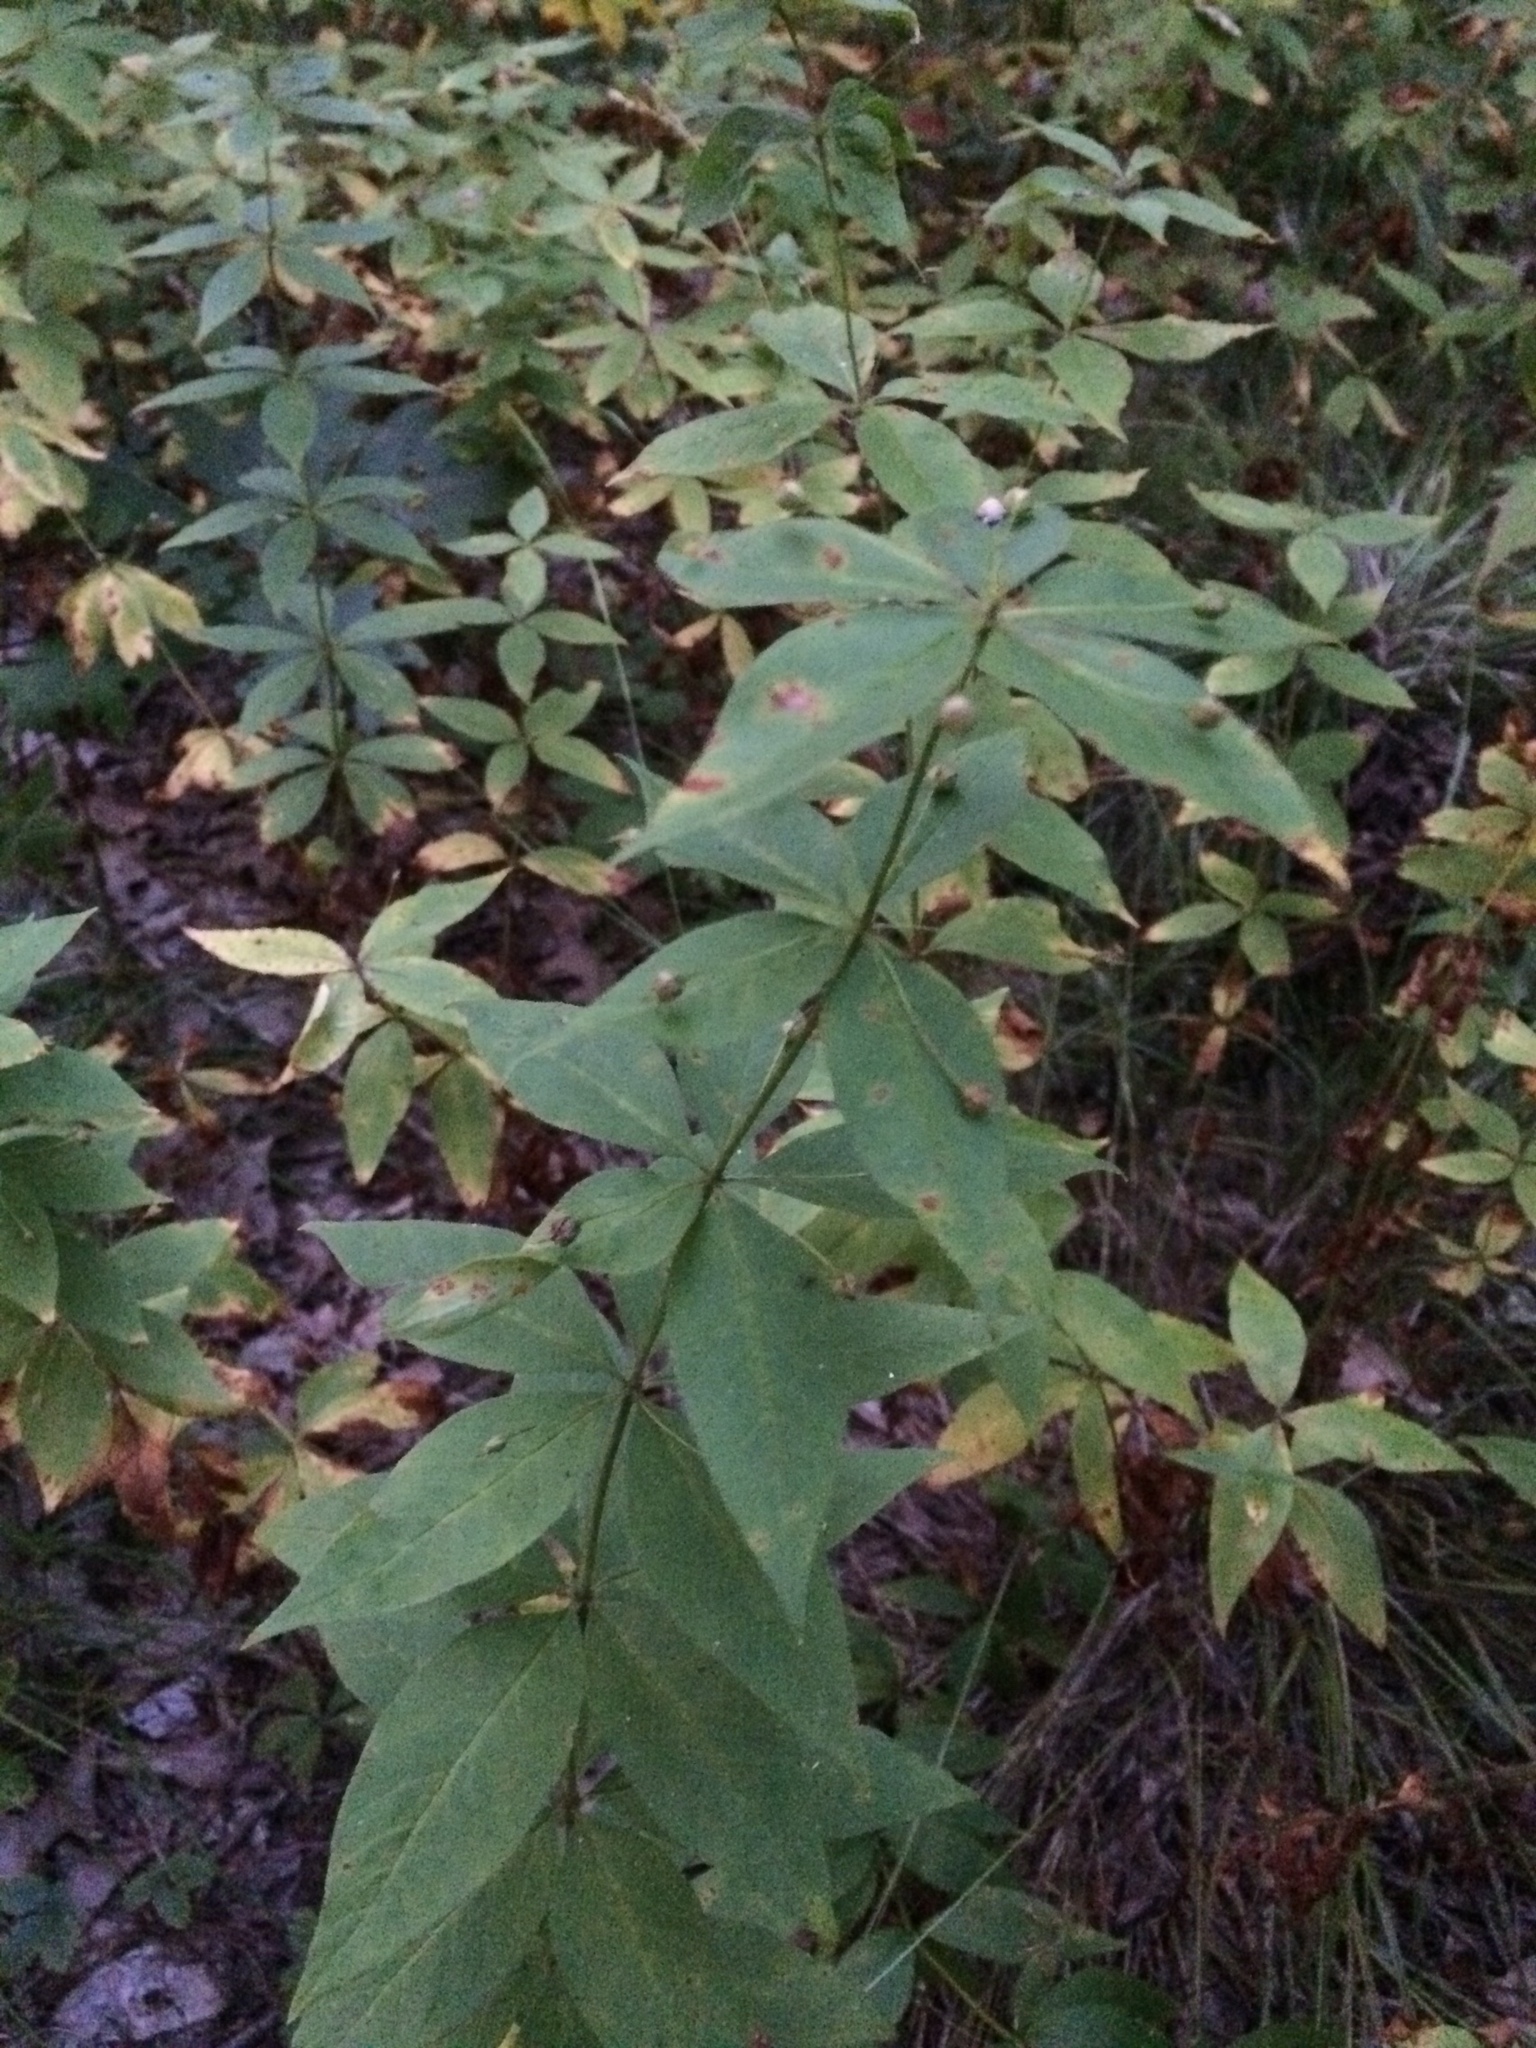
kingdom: Plantae
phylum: Tracheophyta
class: Magnoliopsida
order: Ericales
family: Primulaceae
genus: Lysimachia
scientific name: Lysimachia quadrifolia
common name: Whorled loosestrife
